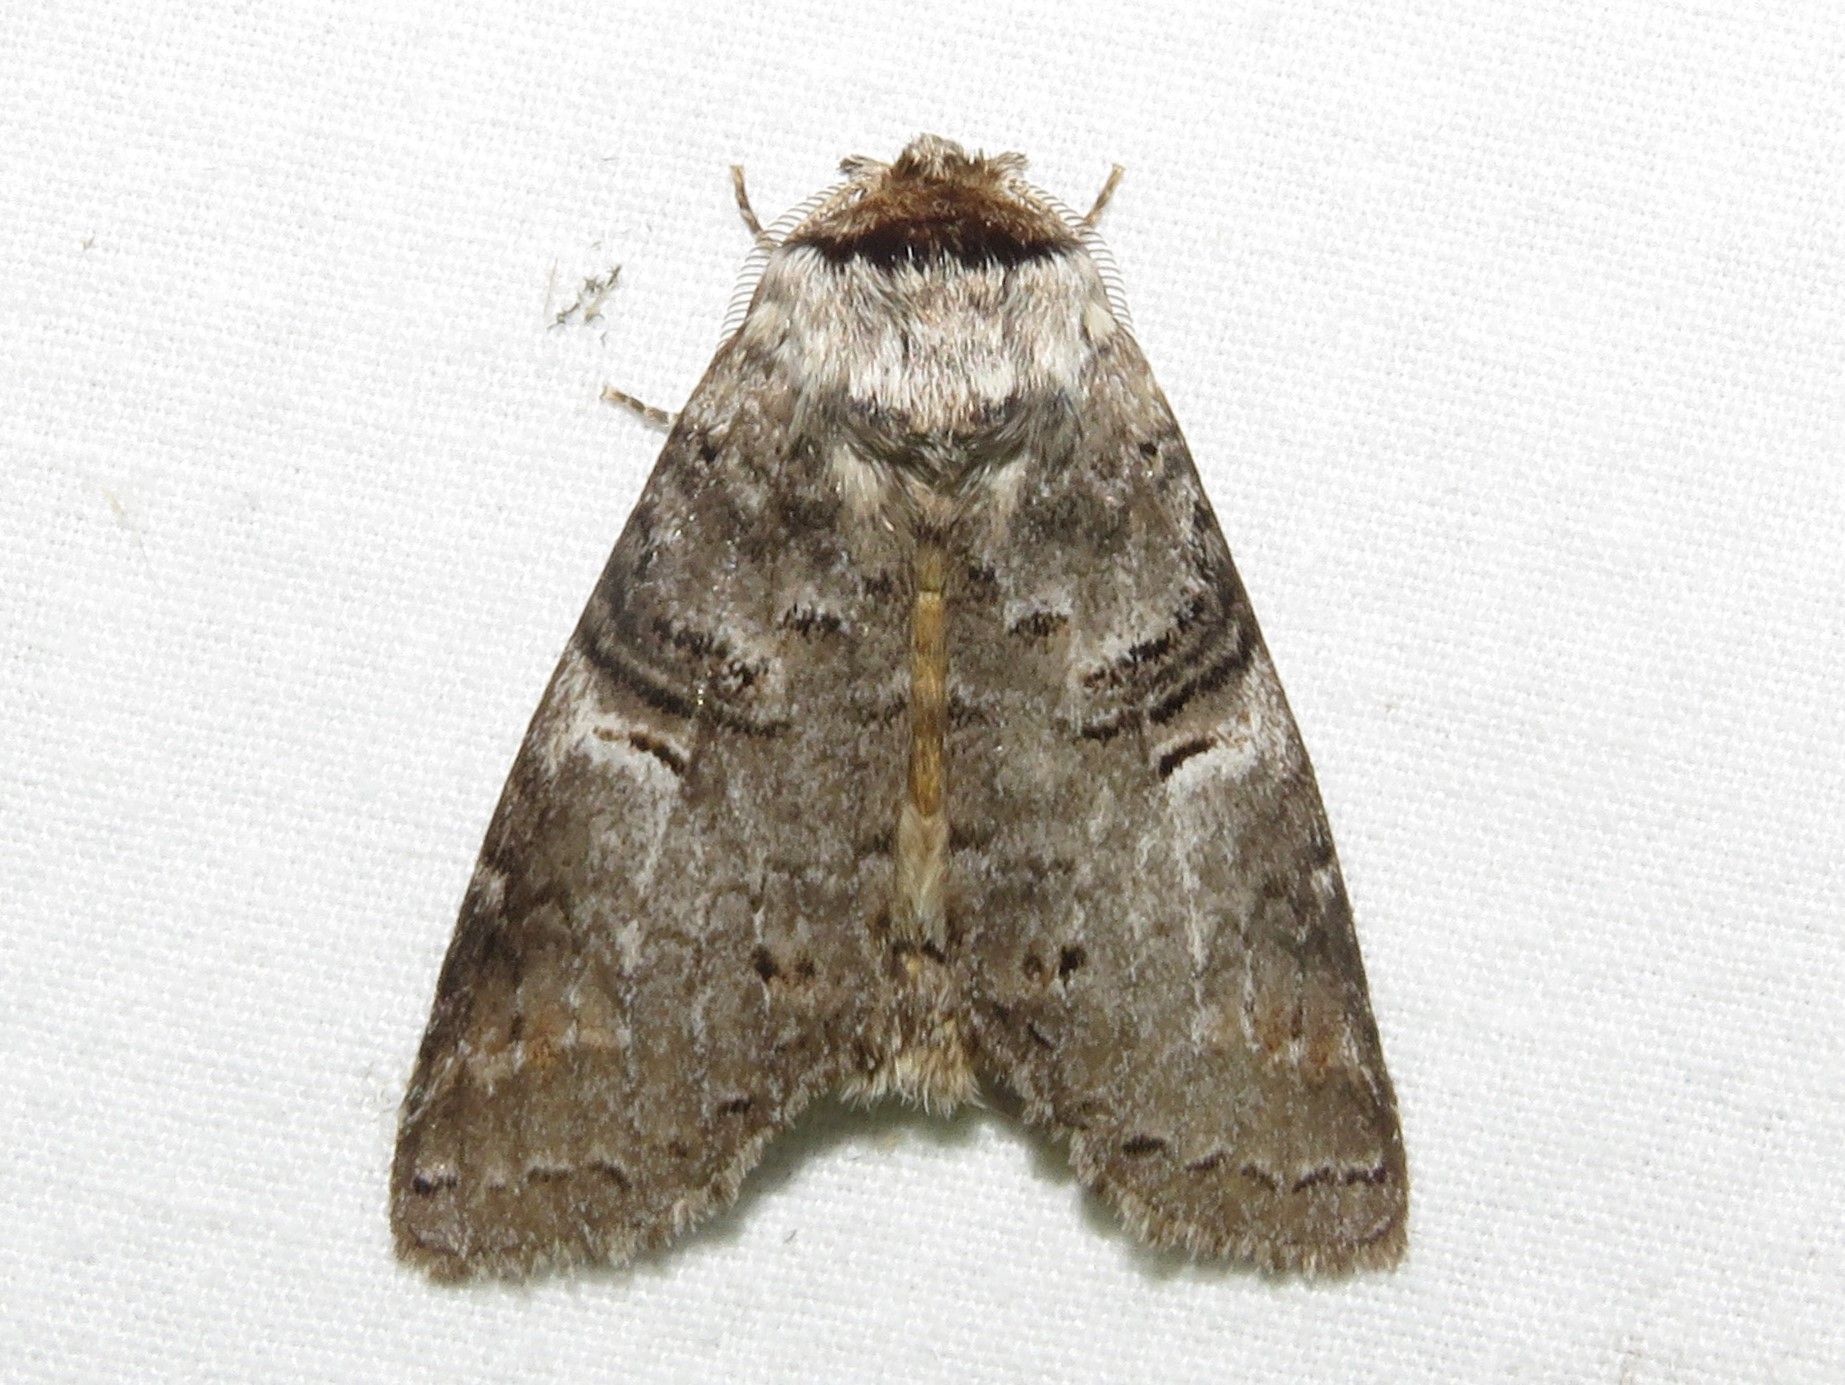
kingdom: Animalia
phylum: Arthropoda
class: Insecta
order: Lepidoptera
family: Notodontidae
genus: Ellida
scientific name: Ellida caniplaga
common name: Linden prominent
